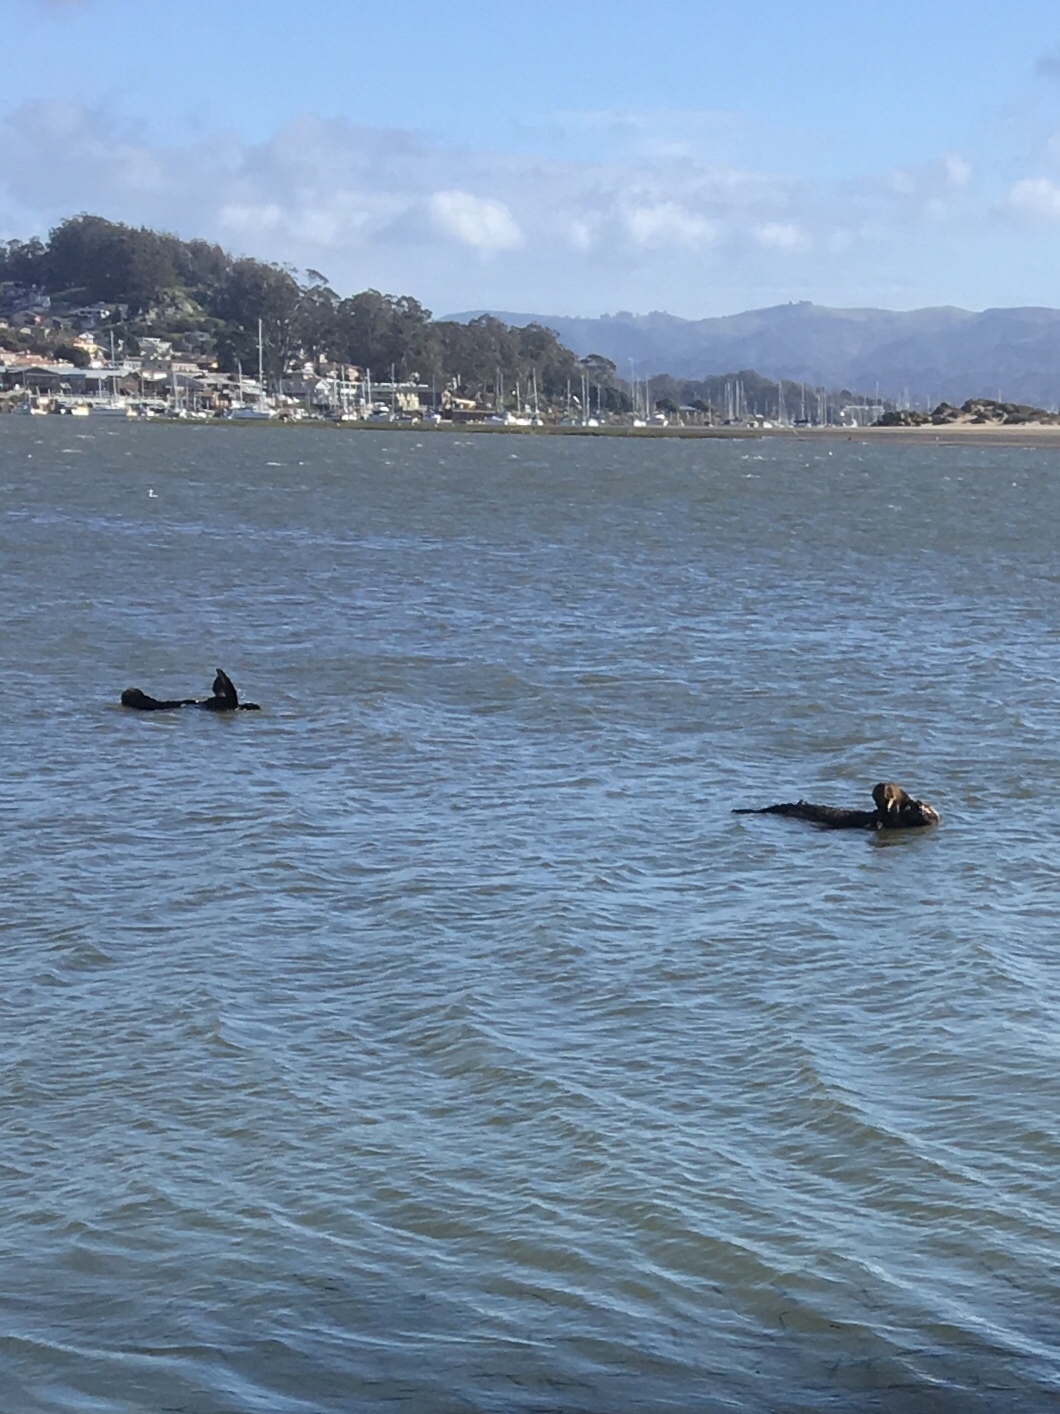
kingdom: Animalia
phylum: Chordata
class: Mammalia
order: Carnivora
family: Mustelidae
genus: Enhydra
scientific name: Enhydra lutris
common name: Sea otter
